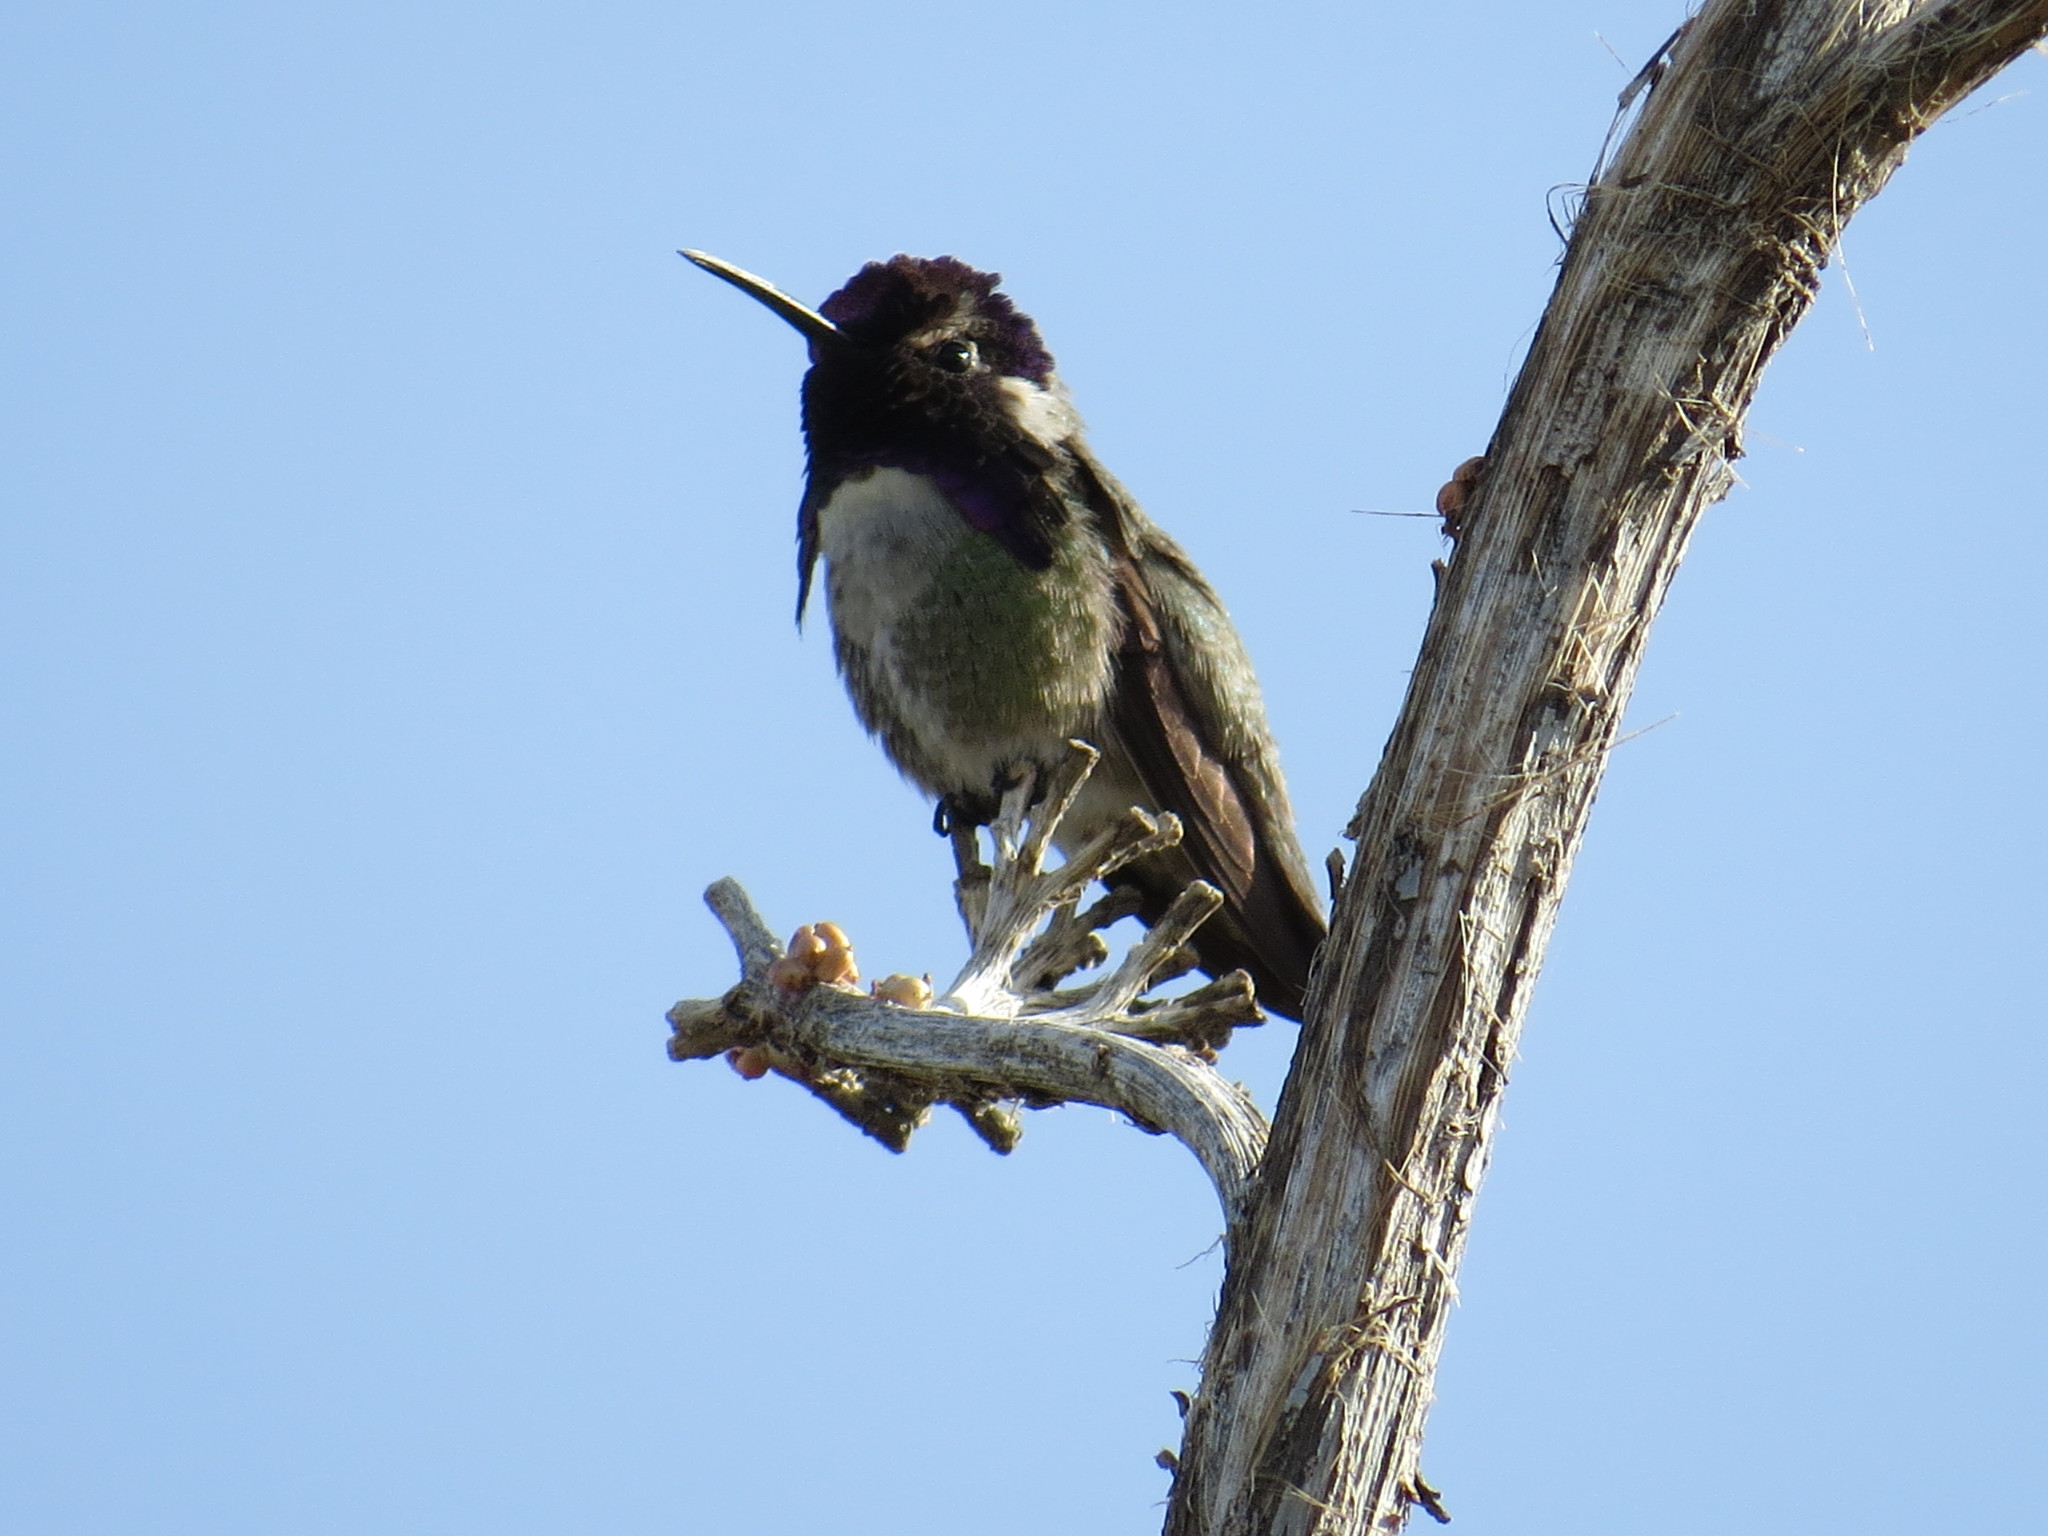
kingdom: Animalia
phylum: Chordata
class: Aves
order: Apodiformes
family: Trochilidae
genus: Calypte
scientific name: Calypte costae
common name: Costa's hummingbird
